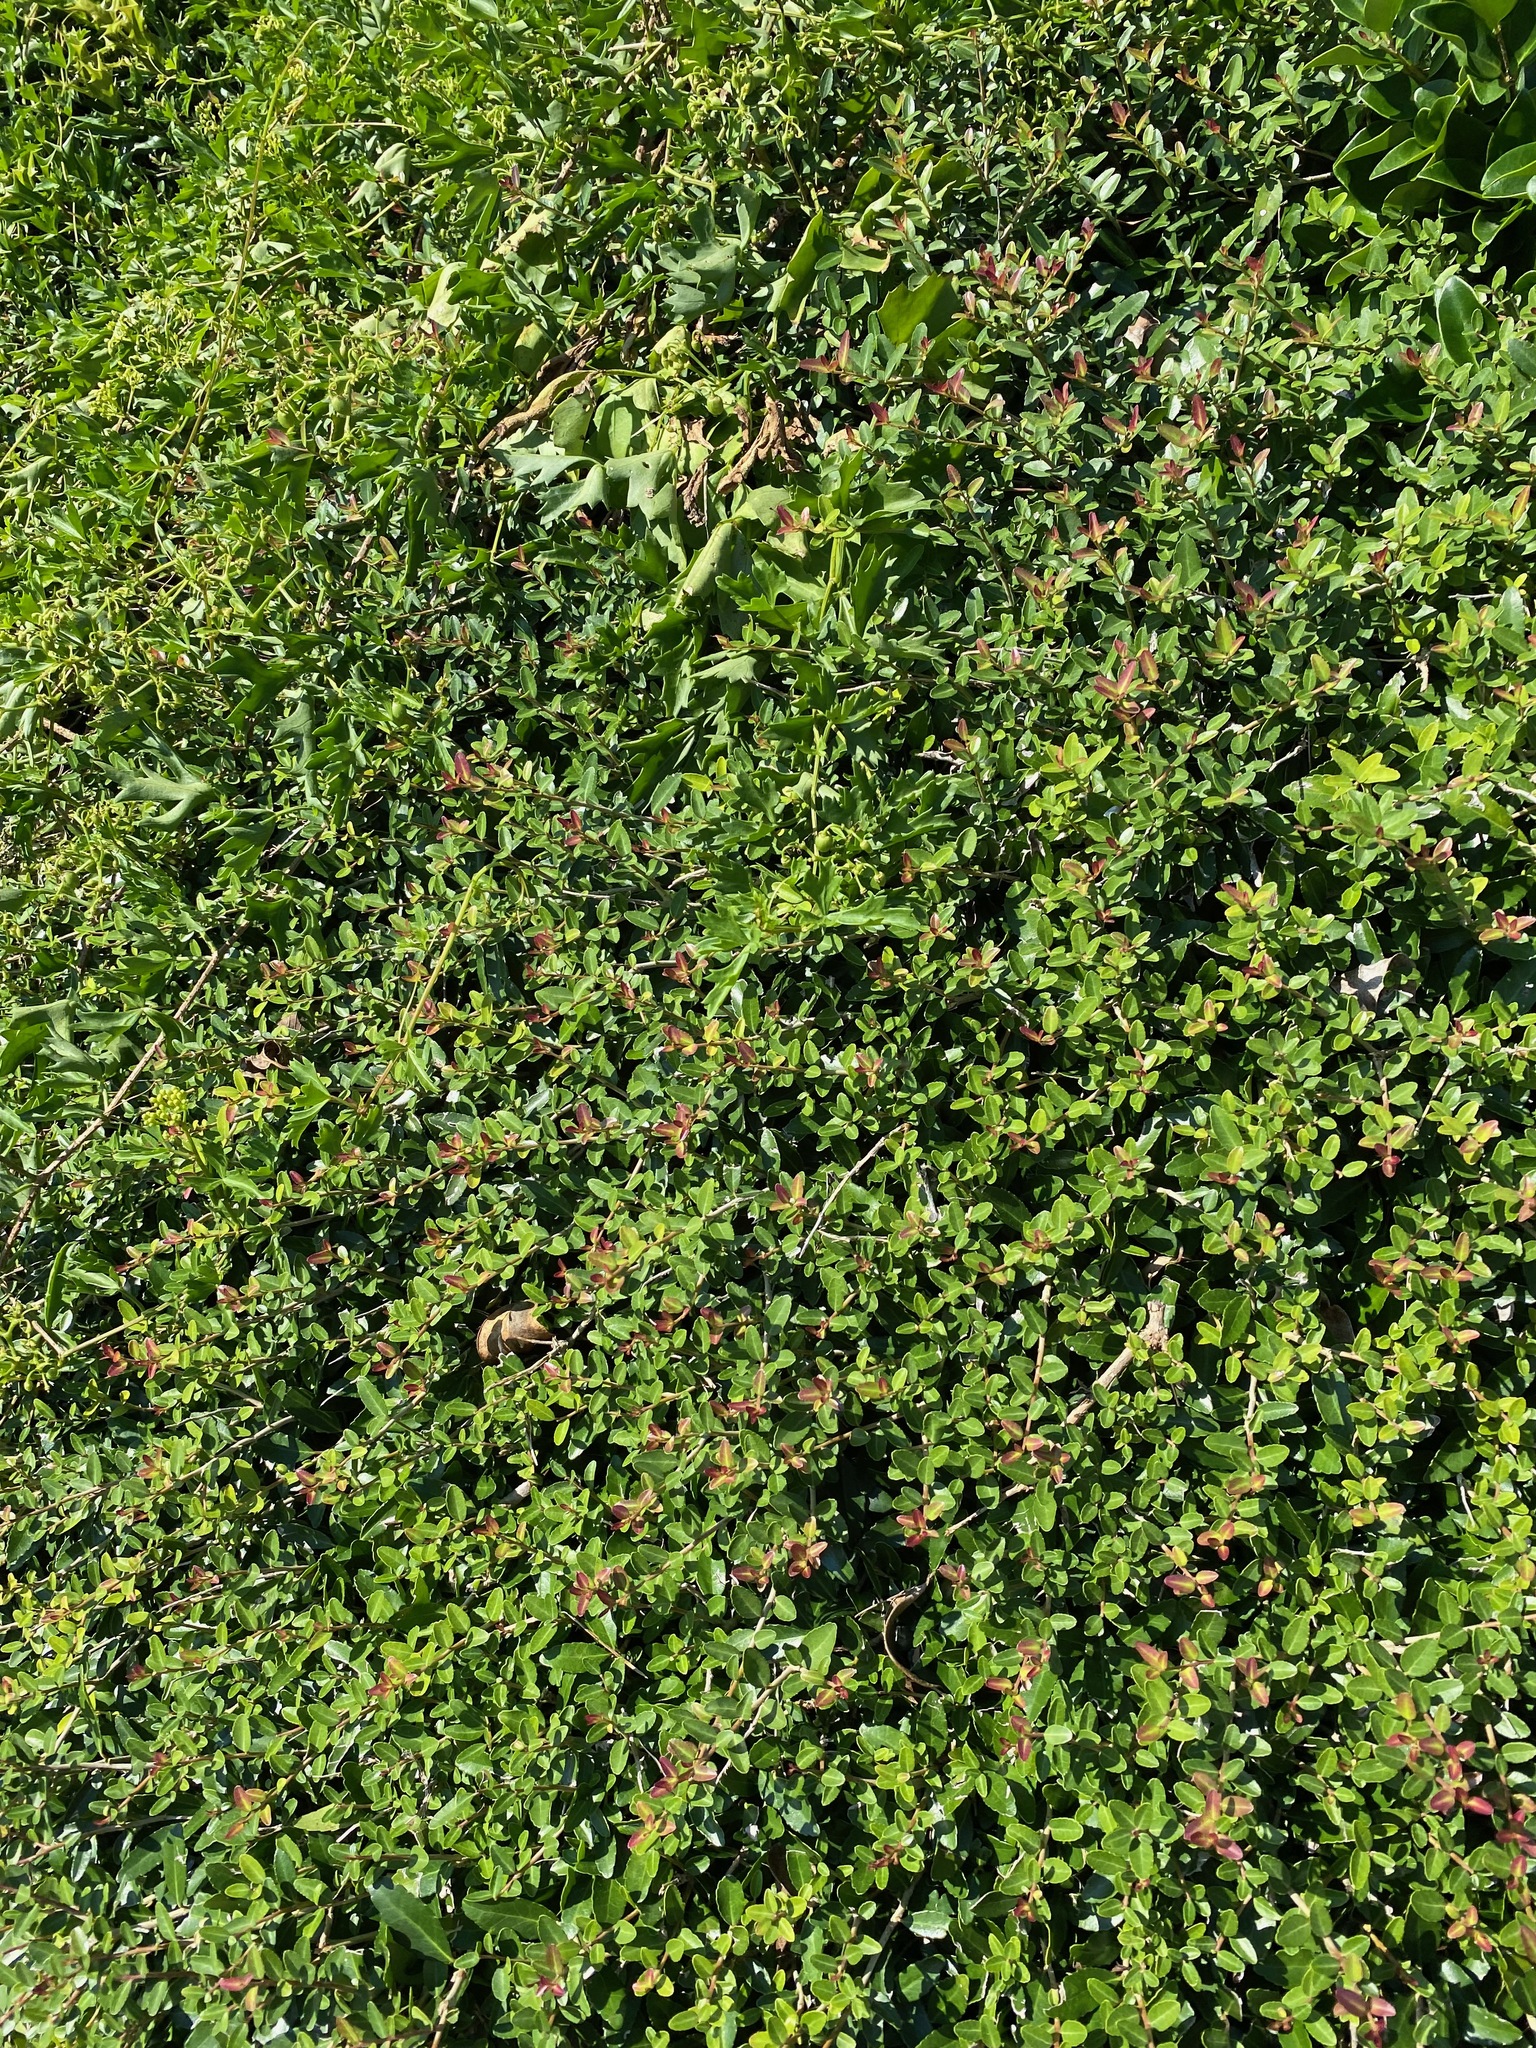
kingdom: Plantae
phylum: Tracheophyta
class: Magnoliopsida
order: Aquifoliales
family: Aquifoliaceae
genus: Ilex
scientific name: Ilex vomitoria
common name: Yaupon holly
